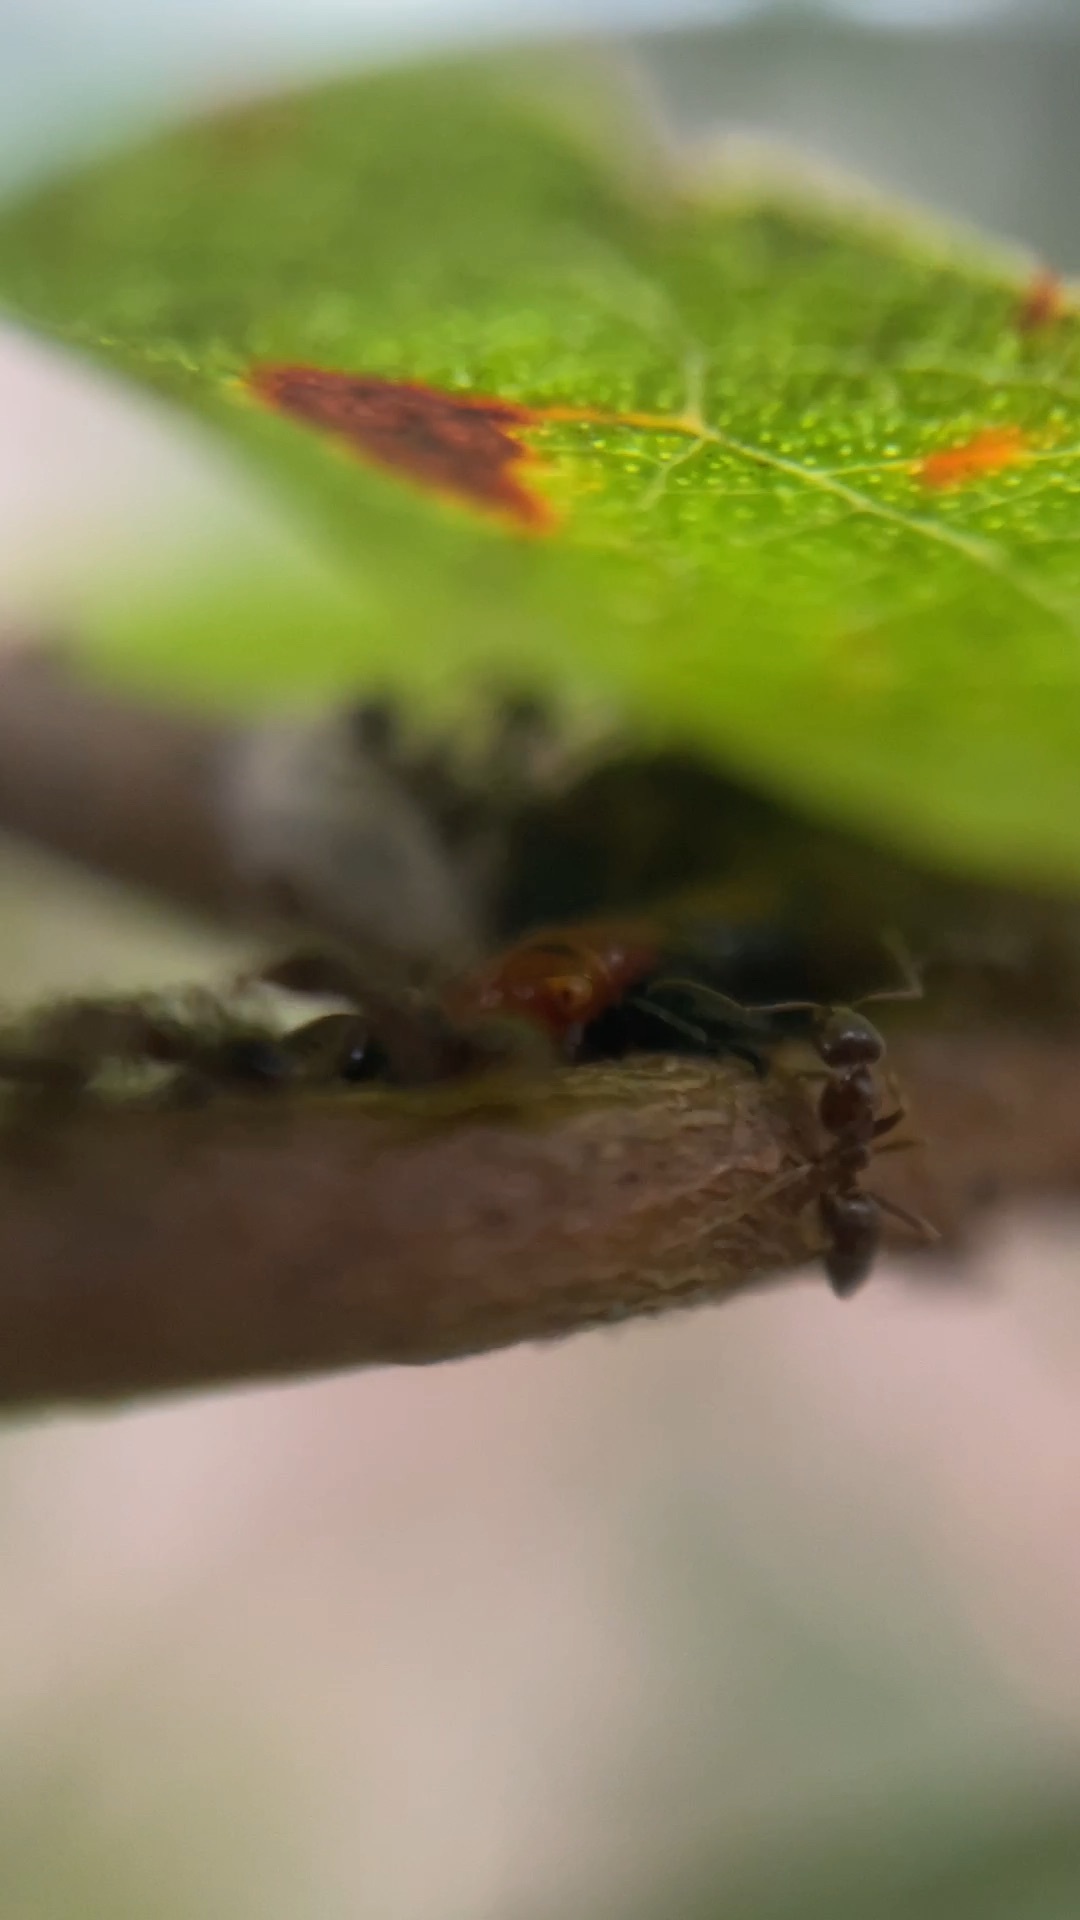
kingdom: Animalia
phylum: Arthropoda
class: Insecta
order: Hymenoptera
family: Formicidae
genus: Linepithema
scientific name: Linepithema humile
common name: Argentine ant
